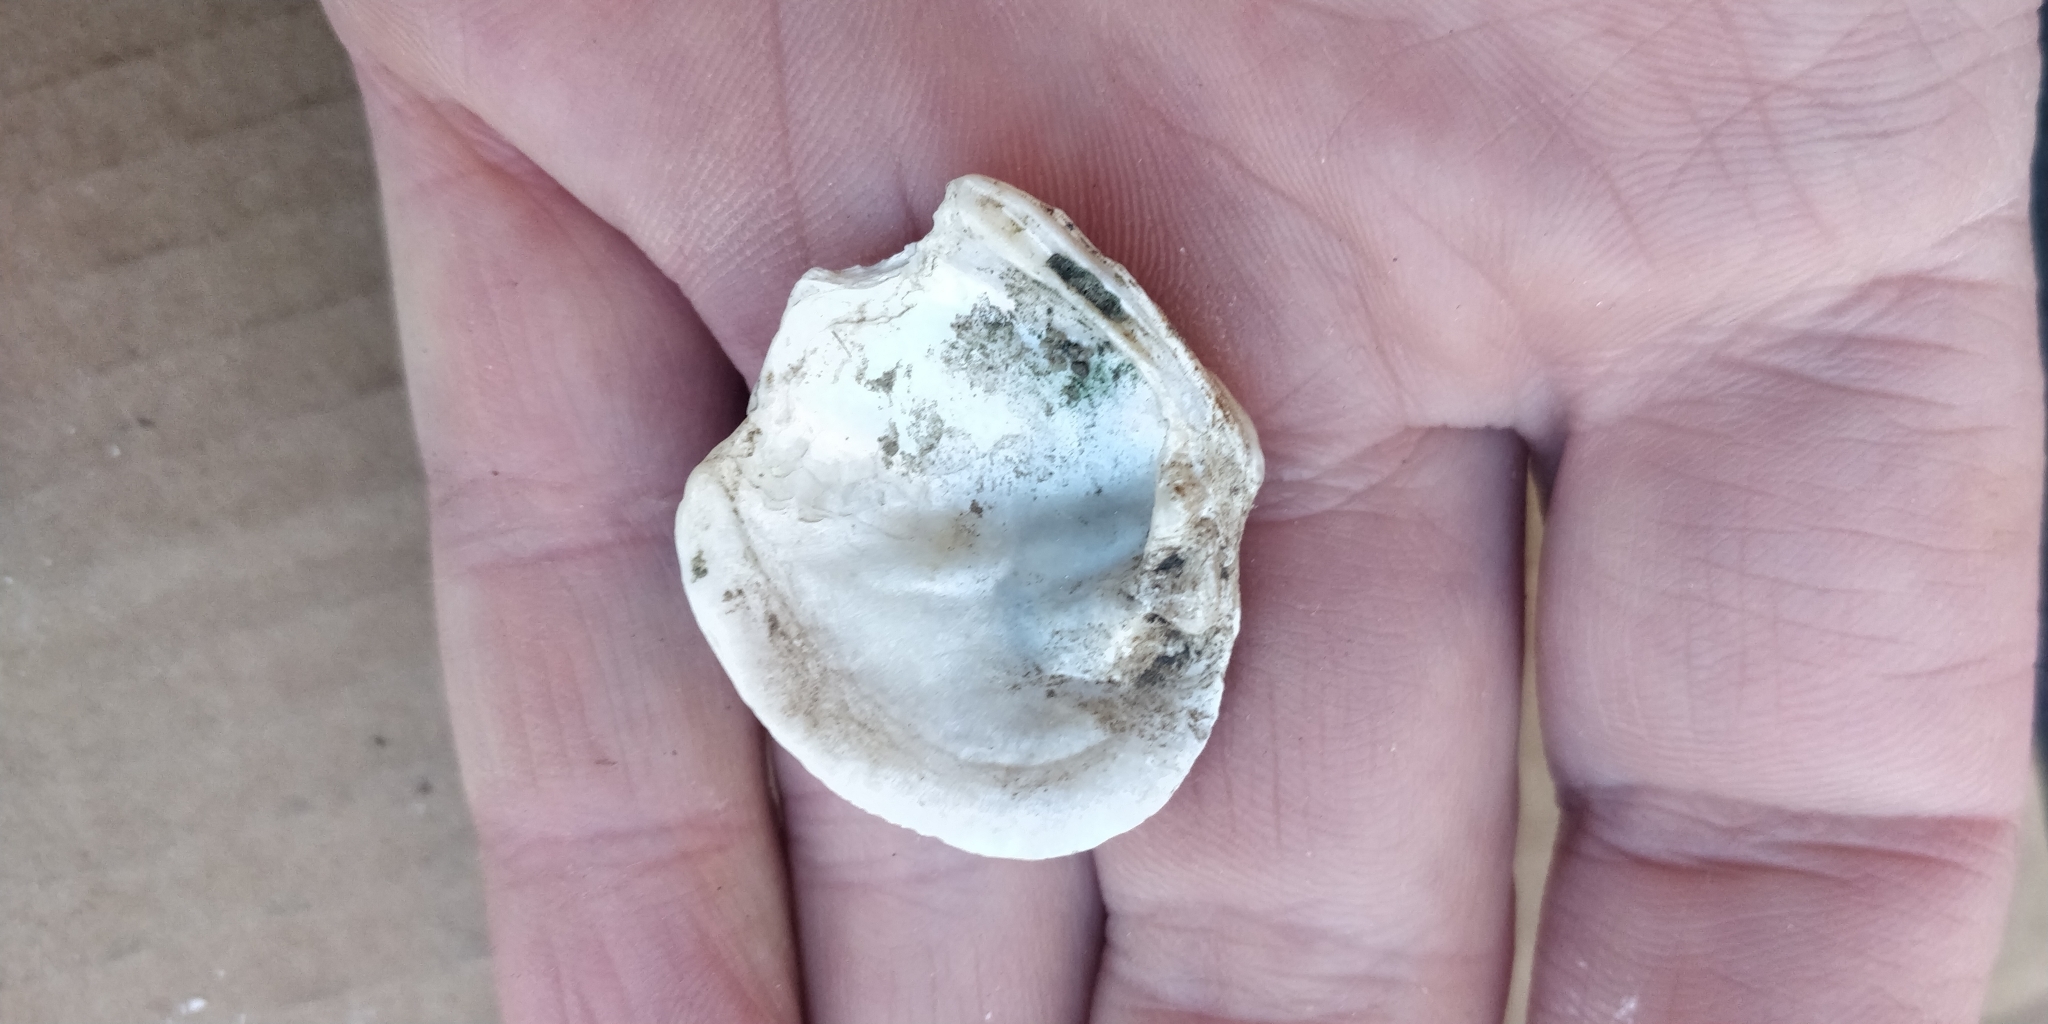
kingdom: Animalia
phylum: Mollusca
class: Bivalvia
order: Unionida
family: Unionidae
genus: Cyclonaias
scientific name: Cyclonaias pustulosa
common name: Pimpleback
